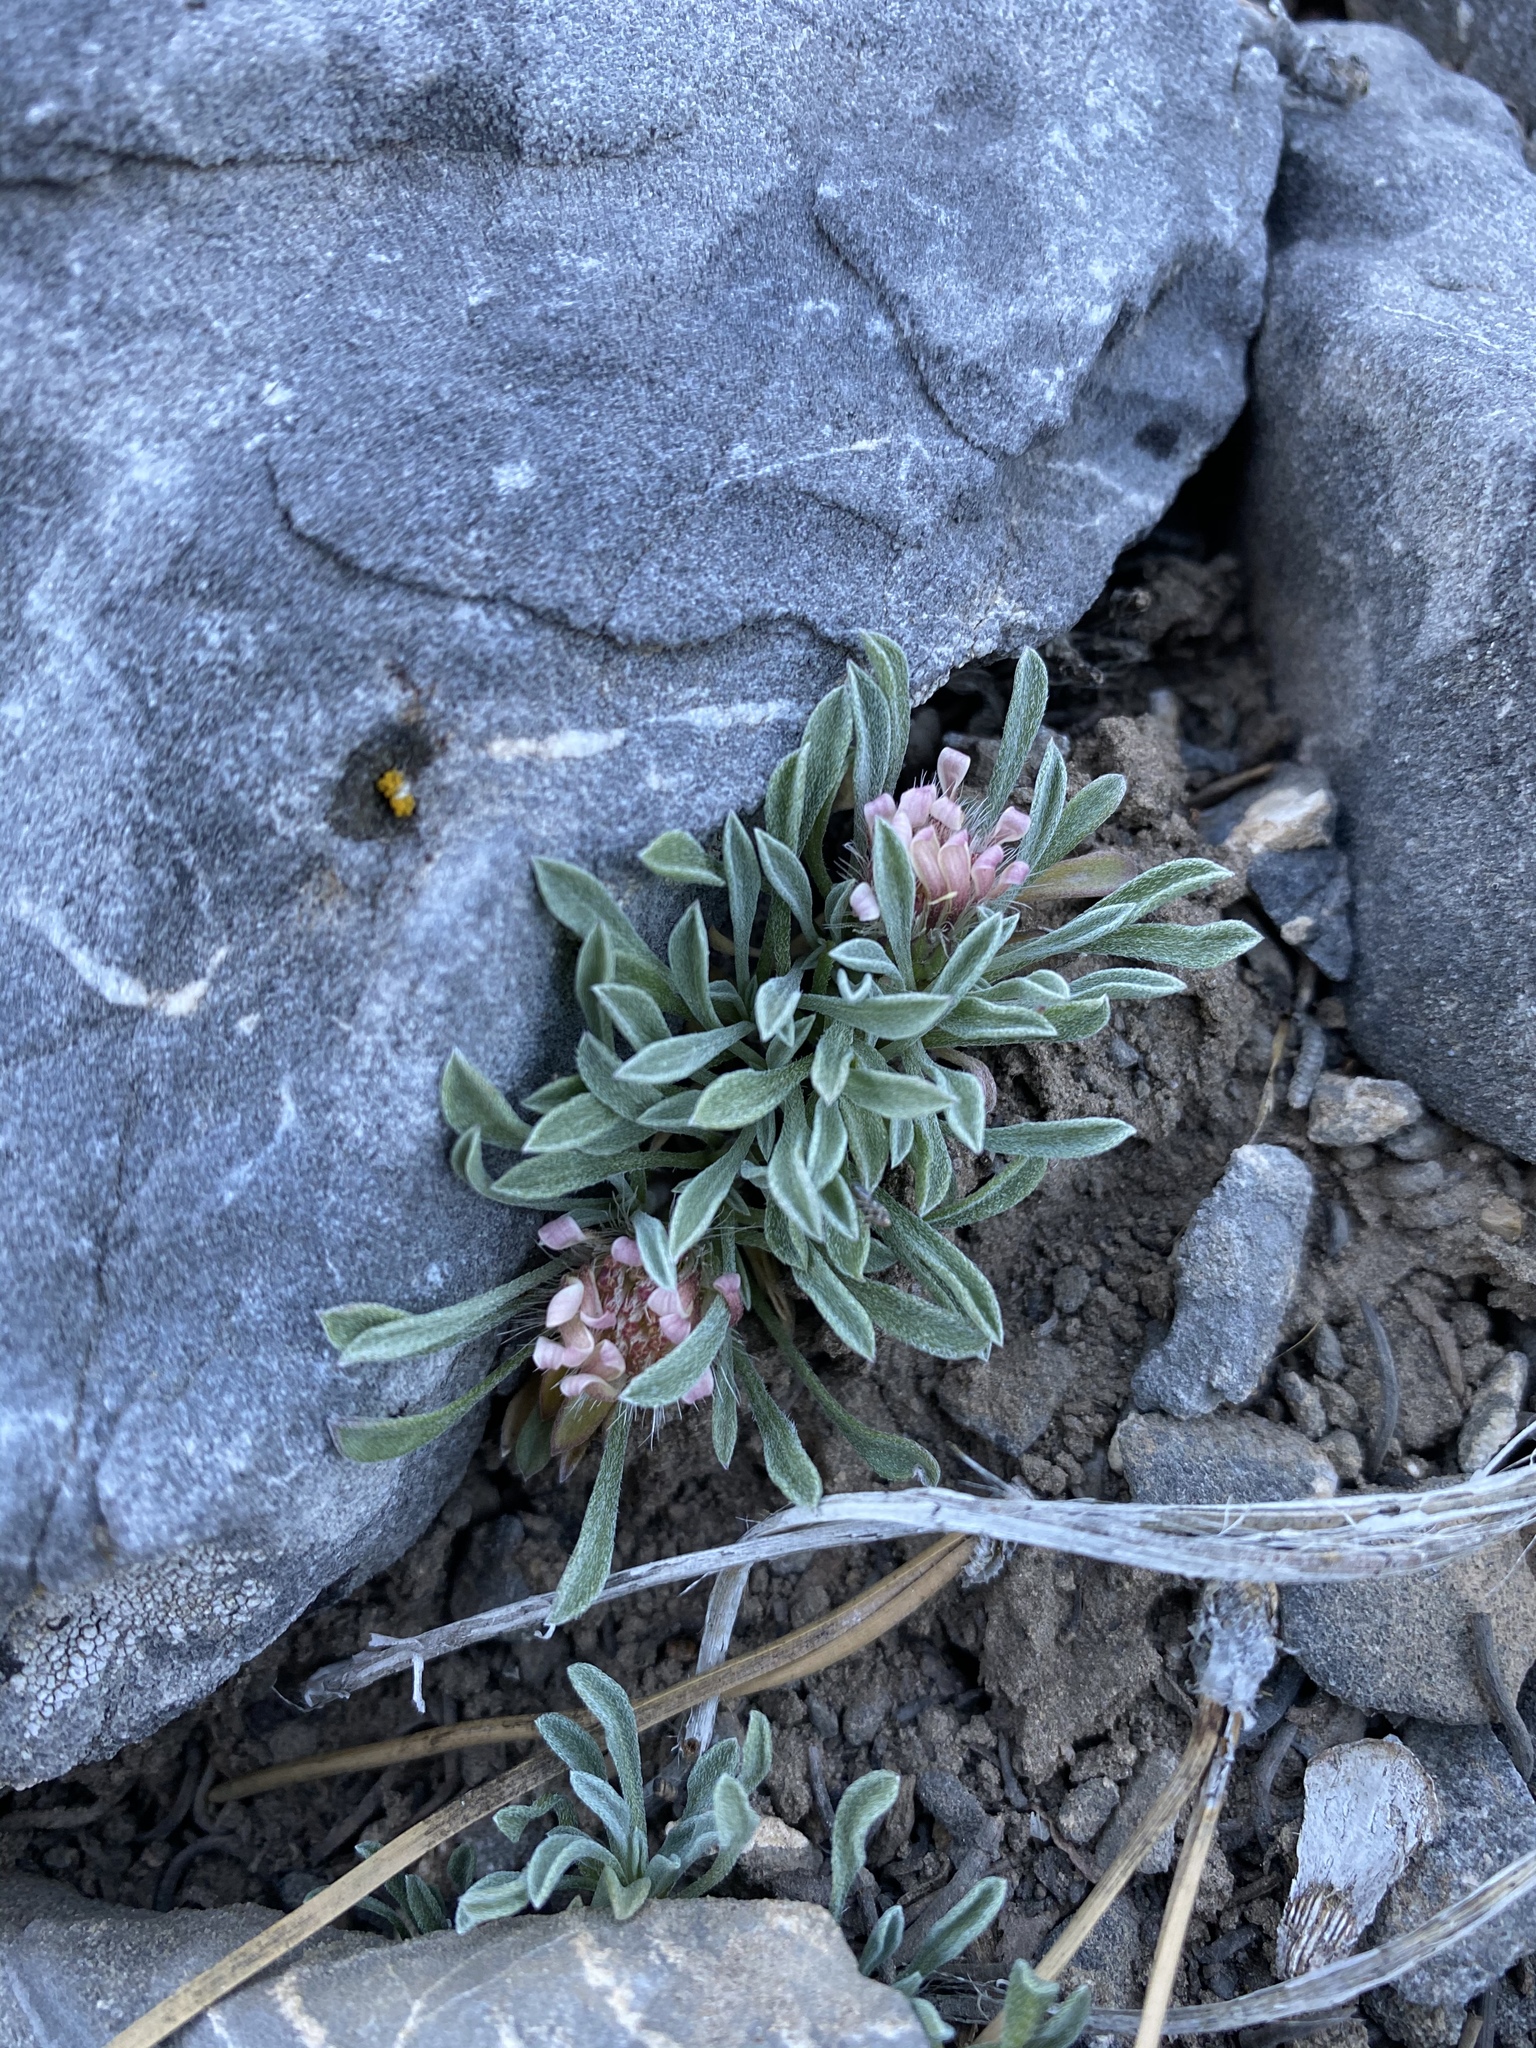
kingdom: Plantae
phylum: Tracheophyta
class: Magnoliopsida
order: Asterales
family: Asteraceae
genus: Townsendia
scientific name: Townsendia jonesii
